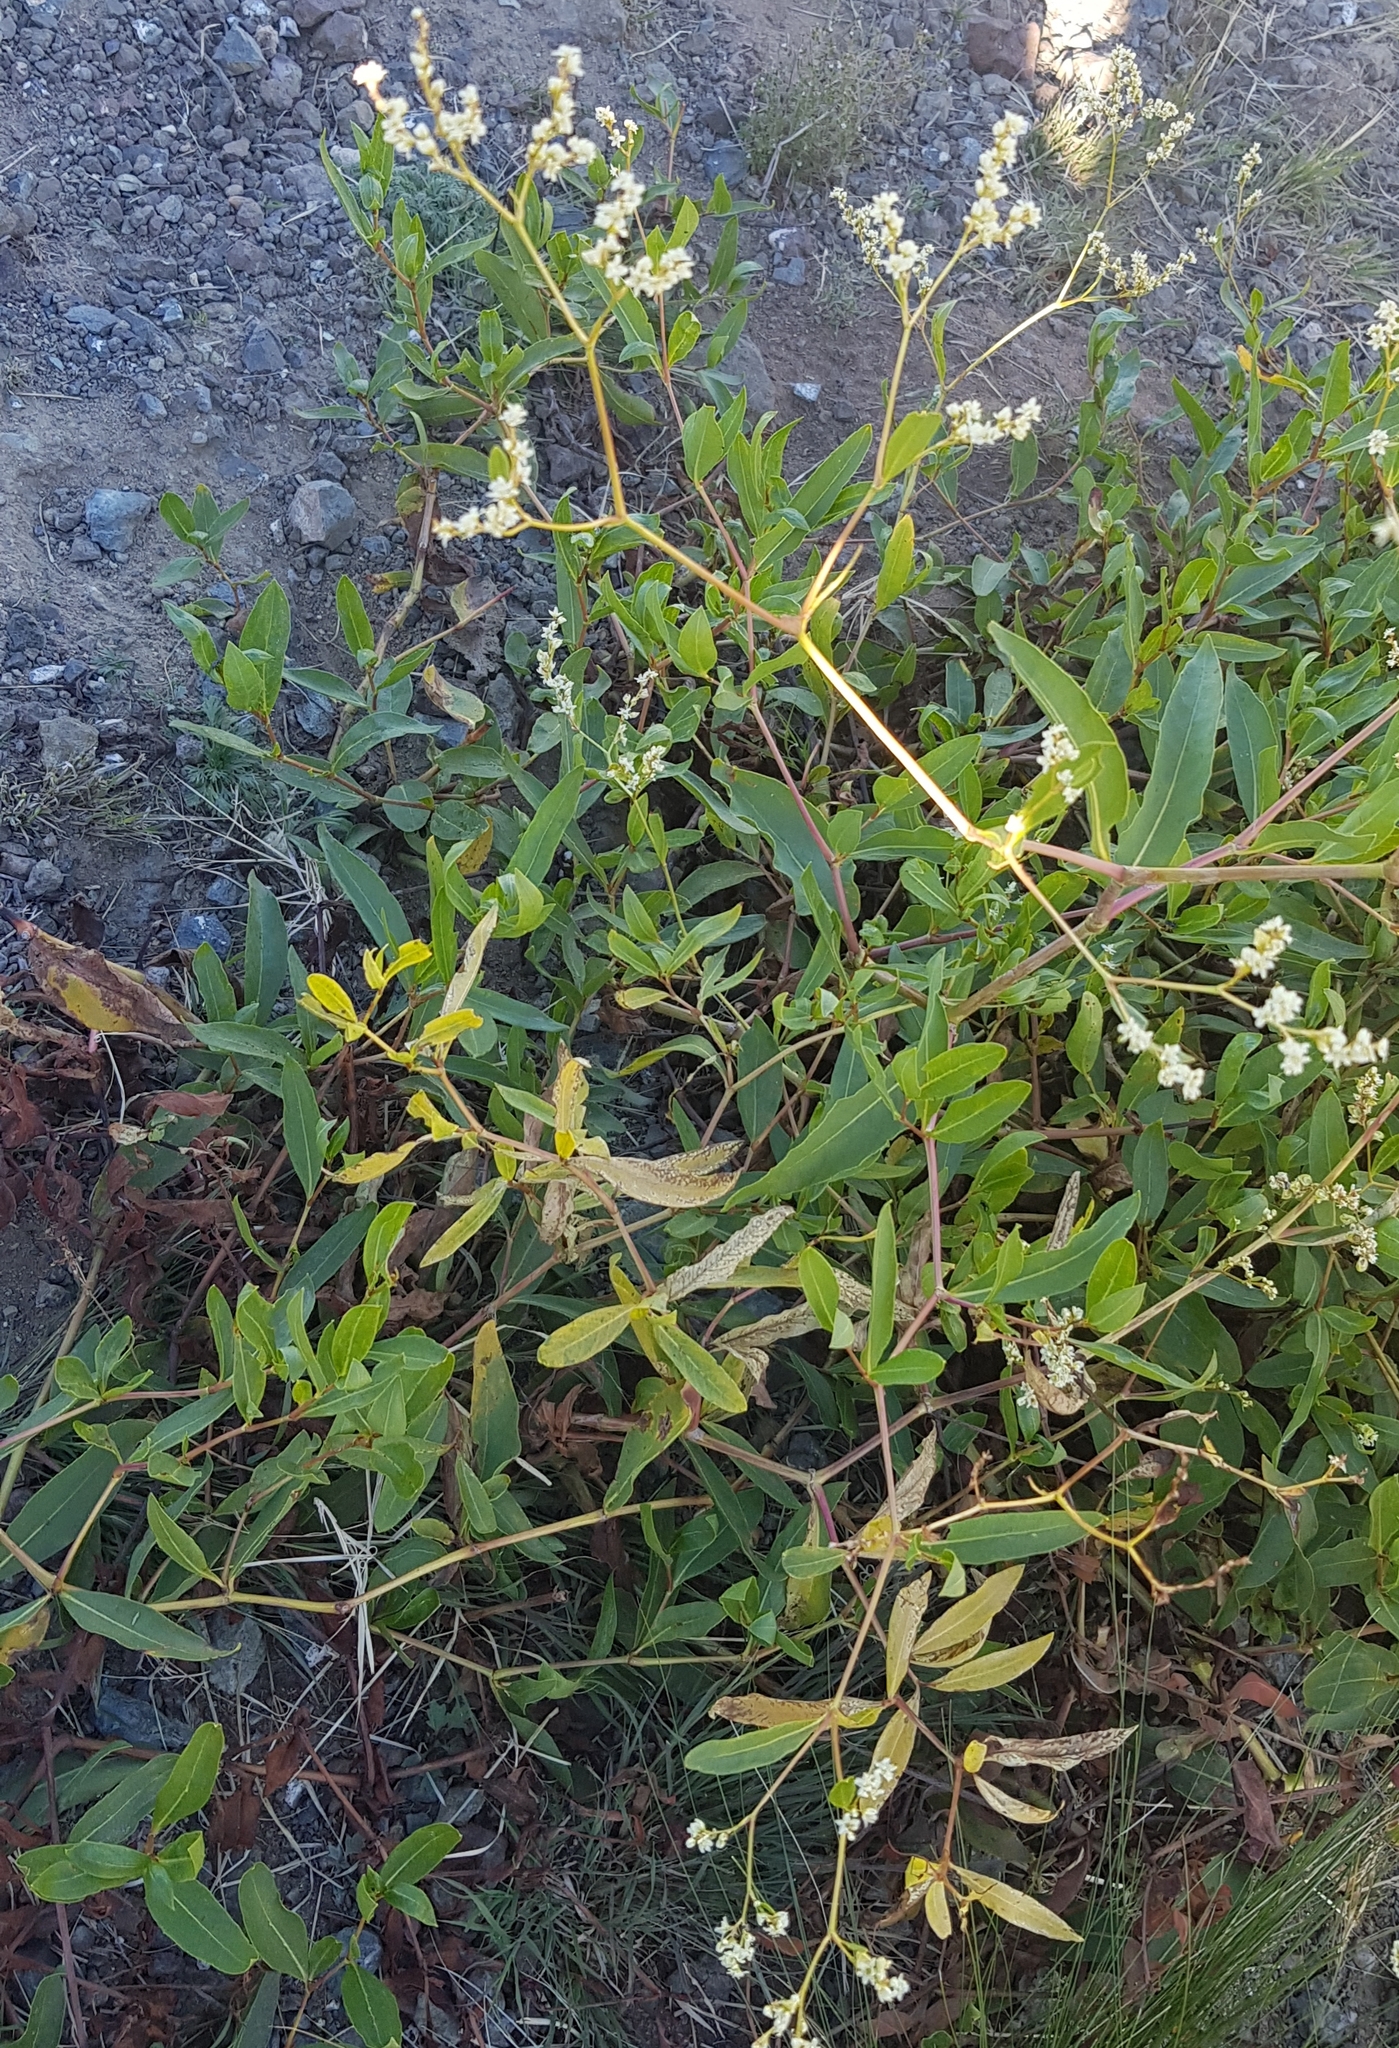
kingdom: Plantae
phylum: Tracheophyta
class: Magnoliopsida
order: Caryophyllales
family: Polygonaceae
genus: Koenigia
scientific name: Koenigia divaricata
